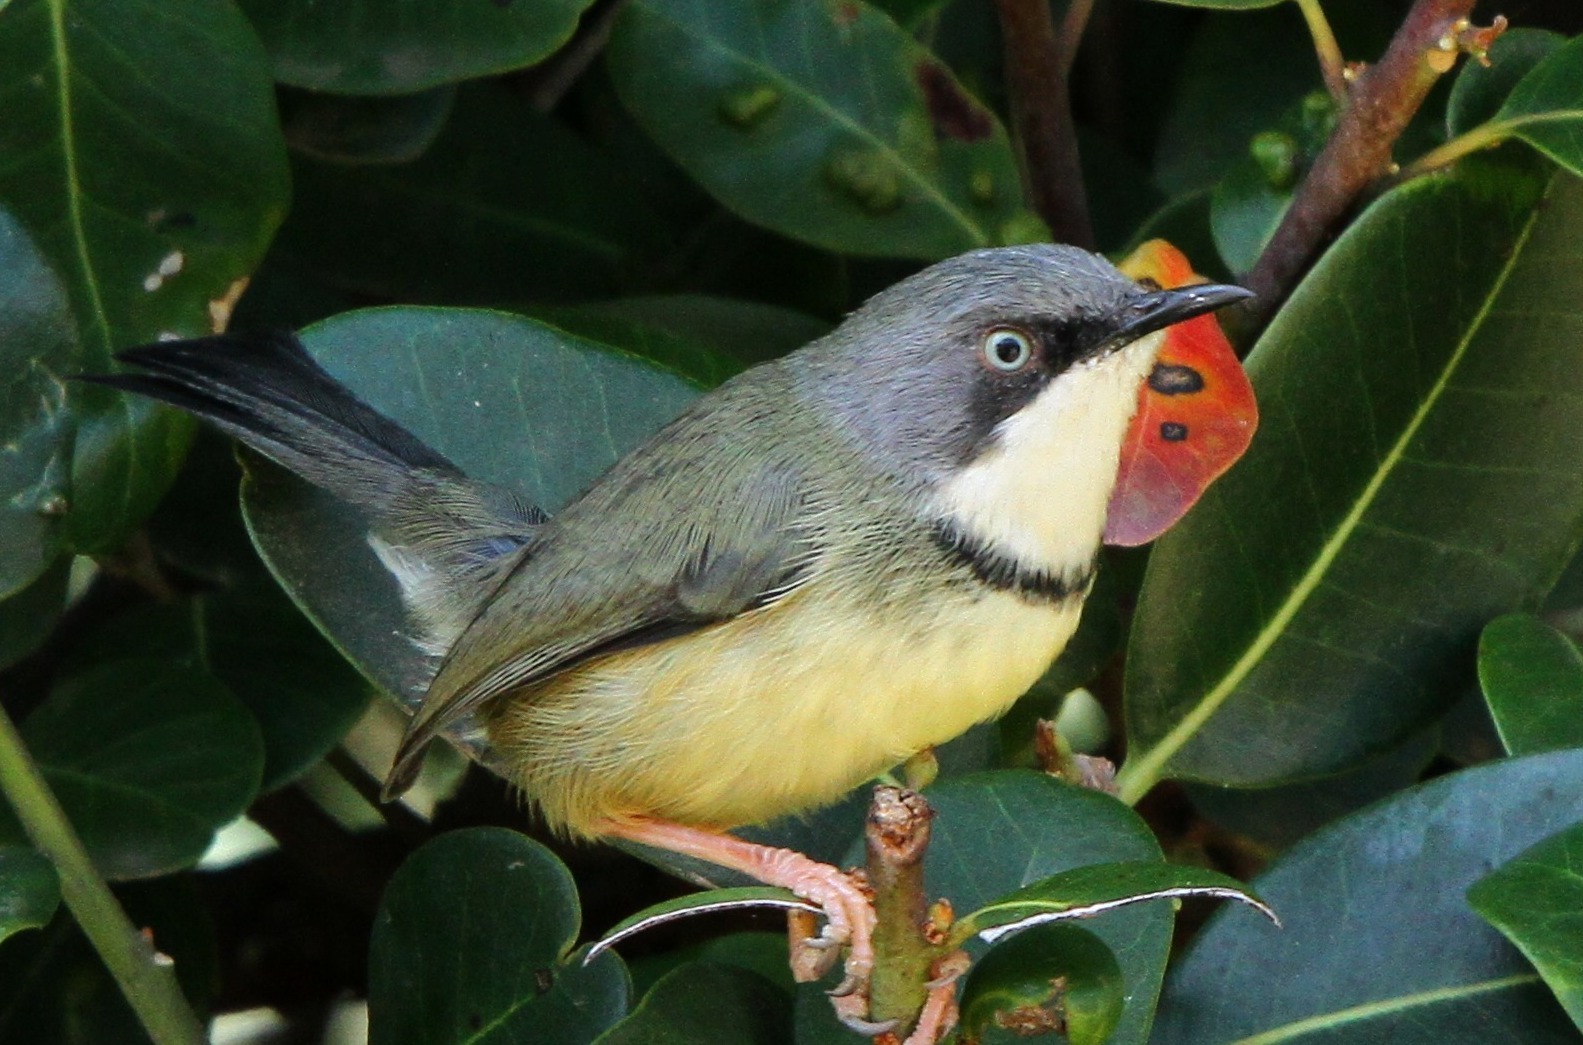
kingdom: Animalia
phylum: Chordata
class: Aves
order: Passeriformes
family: Cisticolidae
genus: Apalis
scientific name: Apalis thoracica
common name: Bar-throated apalis
